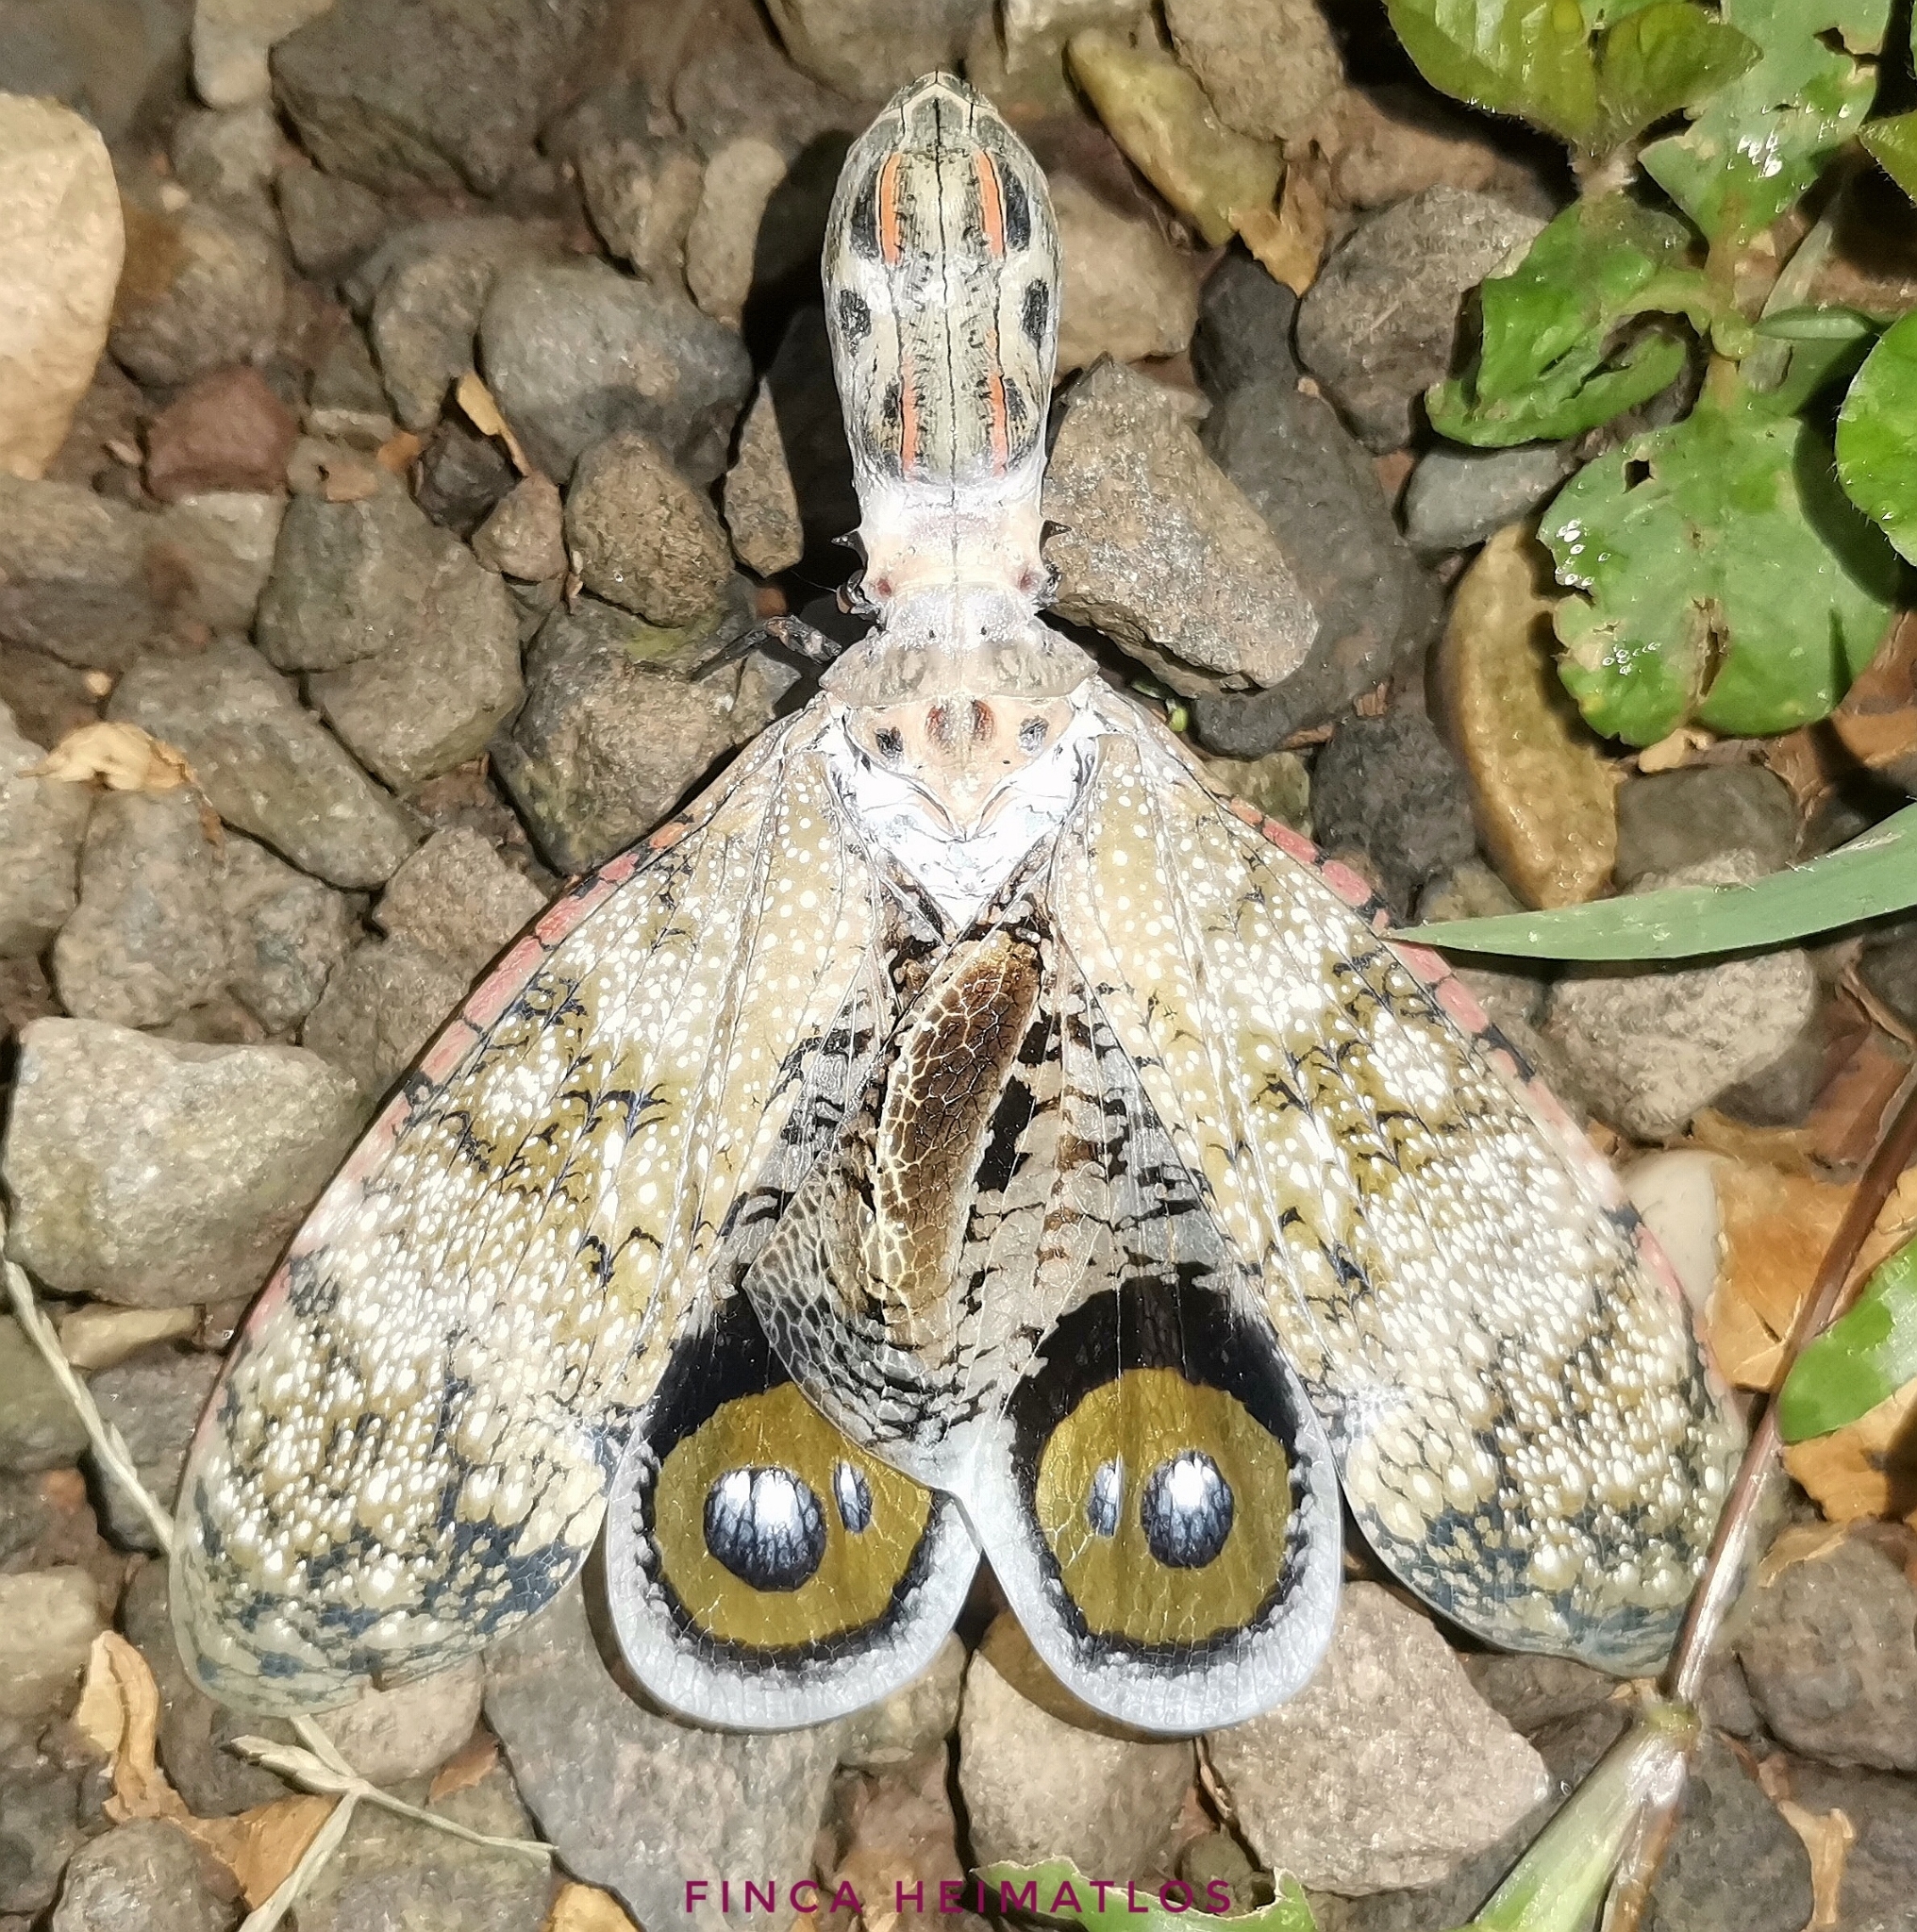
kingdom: Animalia
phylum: Arthropoda
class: Insecta
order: Hemiptera
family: Fulgoridae
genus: Fulgora
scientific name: Fulgora laternaria
